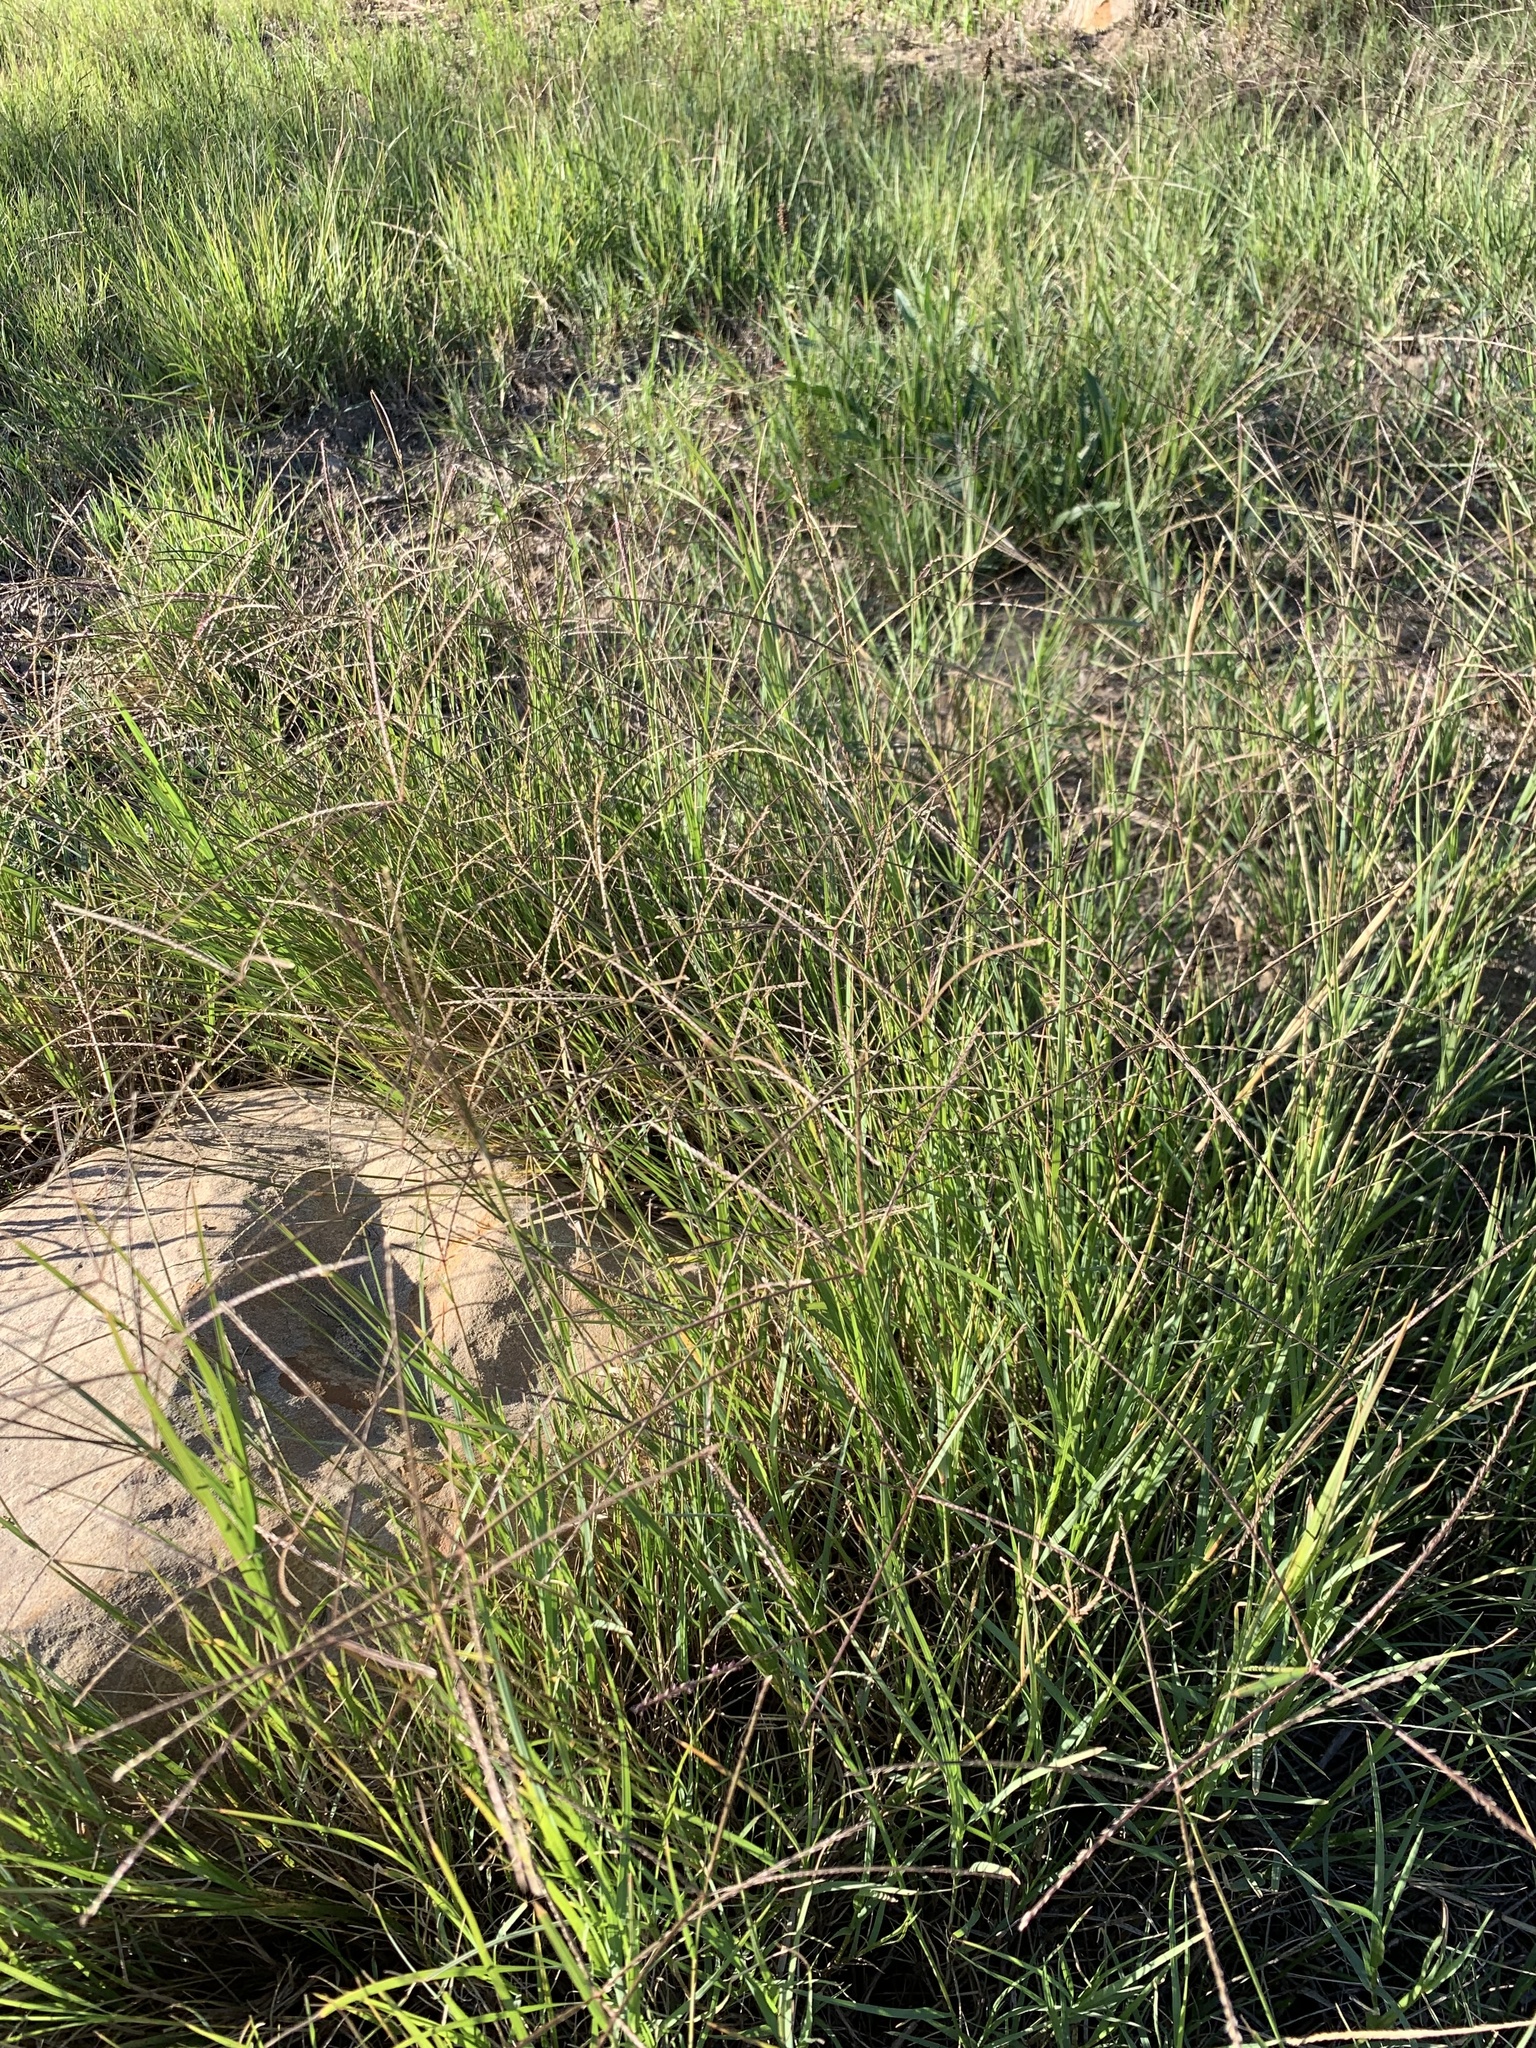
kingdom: Plantae
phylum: Tracheophyta
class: Liliopsida
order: Poales
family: Poaceae
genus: Cynodon
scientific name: Cynodon dactylon
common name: Bermuda grass
